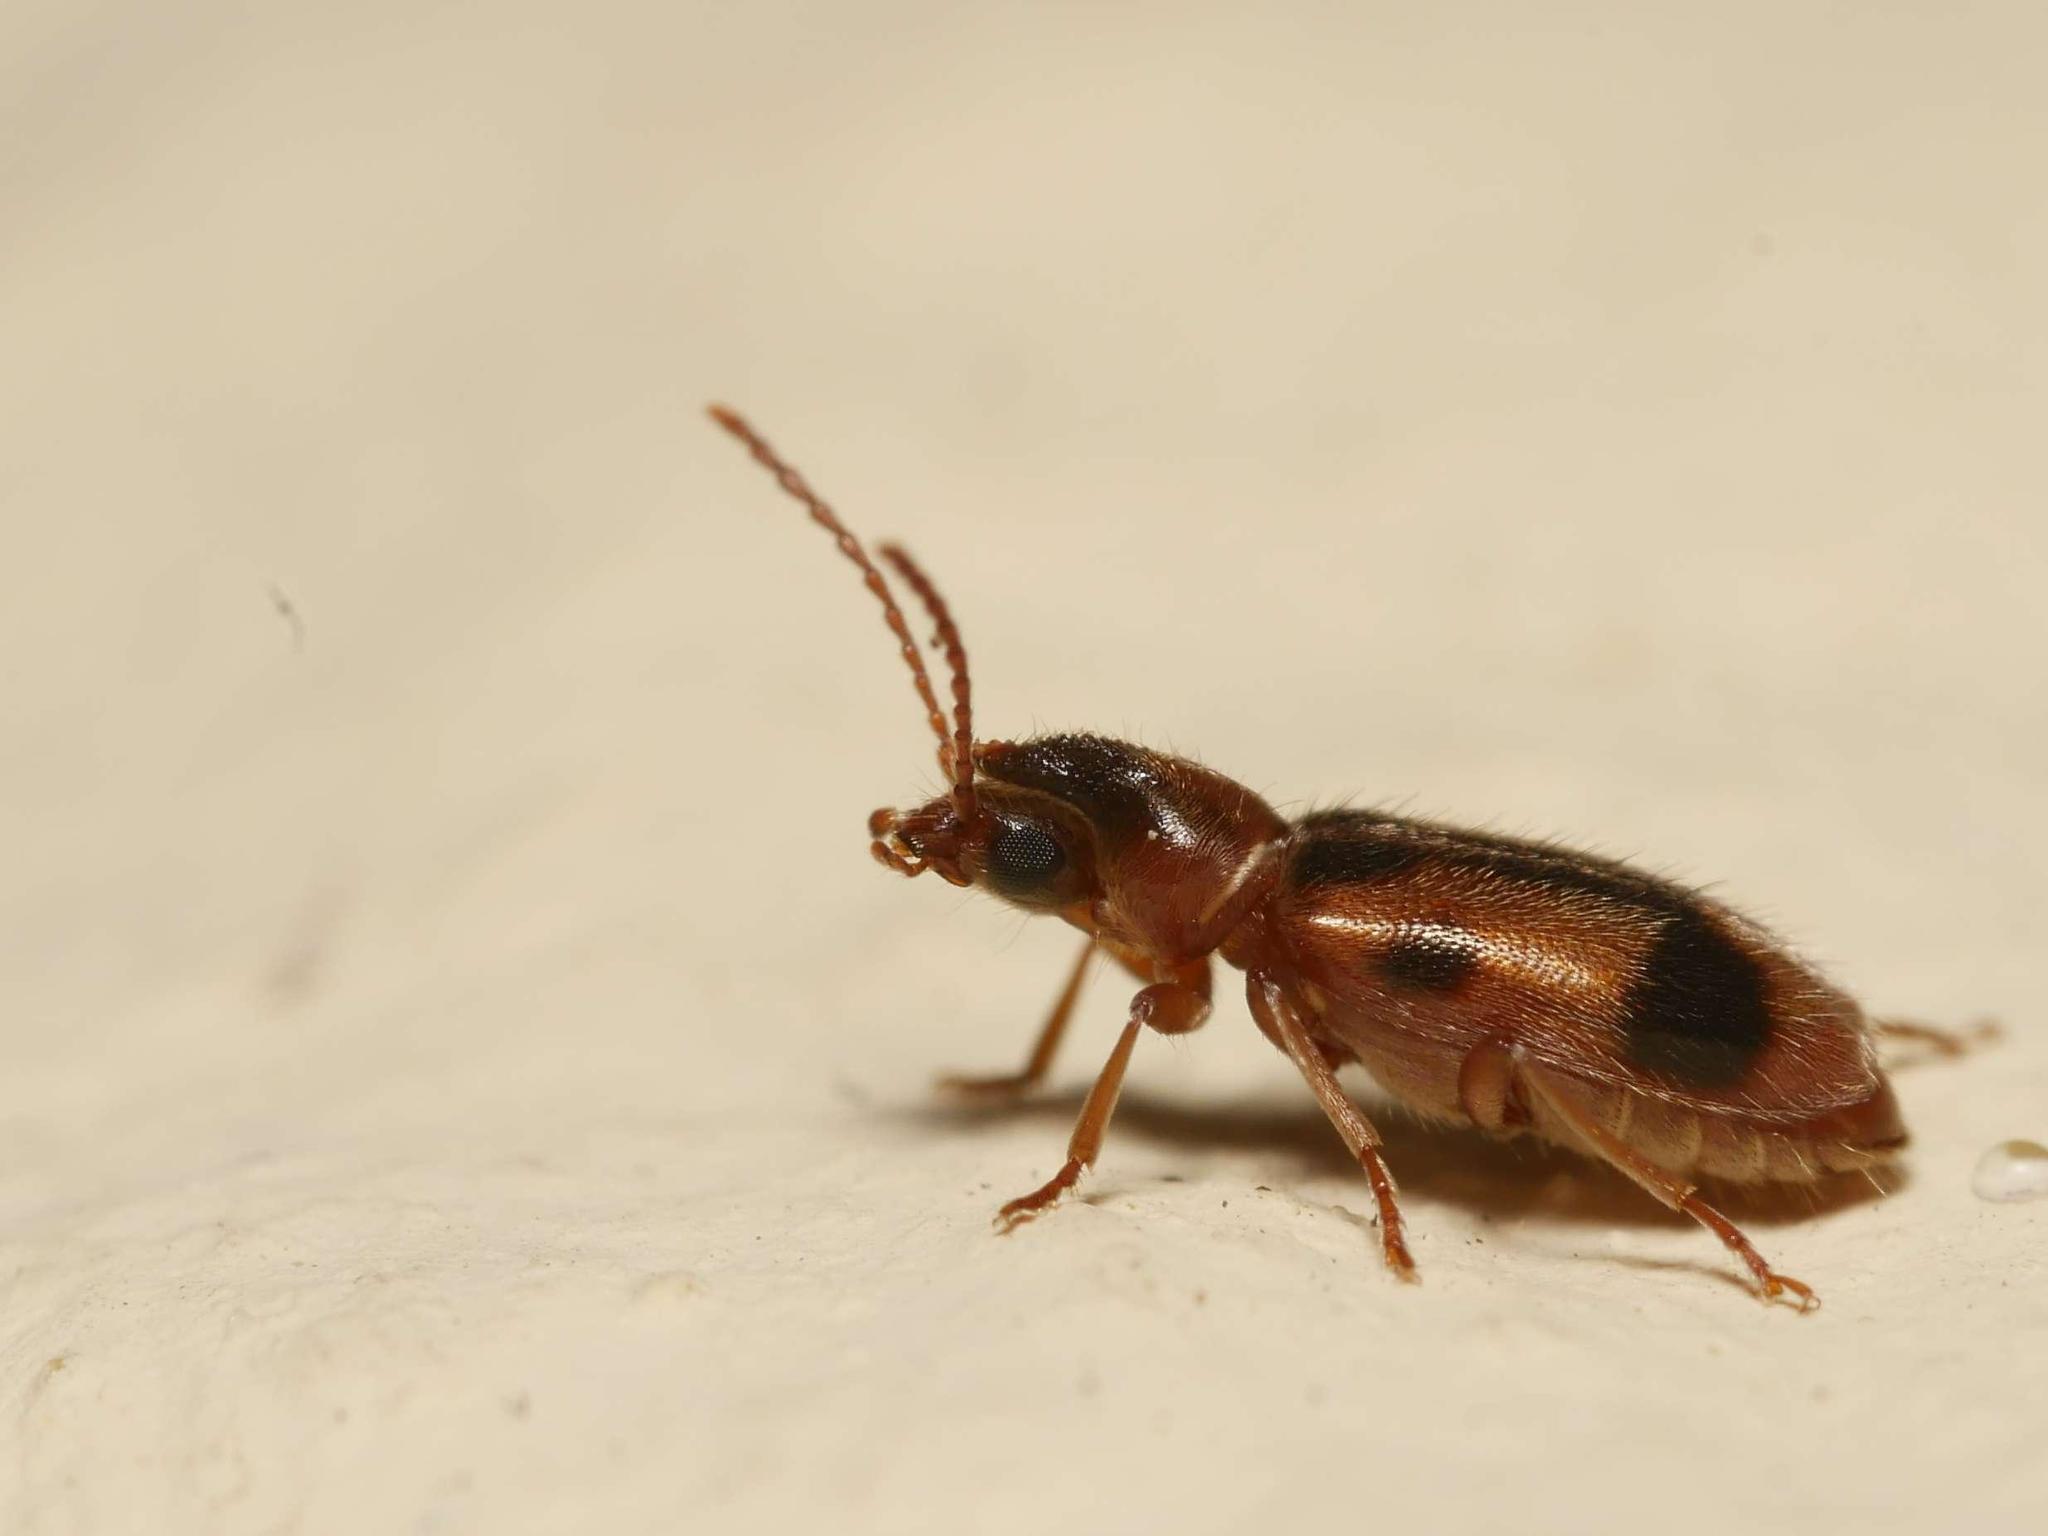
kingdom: Animalia
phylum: Arthropoda
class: Insecta
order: Coleoptera
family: Anthicidae
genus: Notoxus
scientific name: Notoxus monoceros
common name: Monoceros beetle
